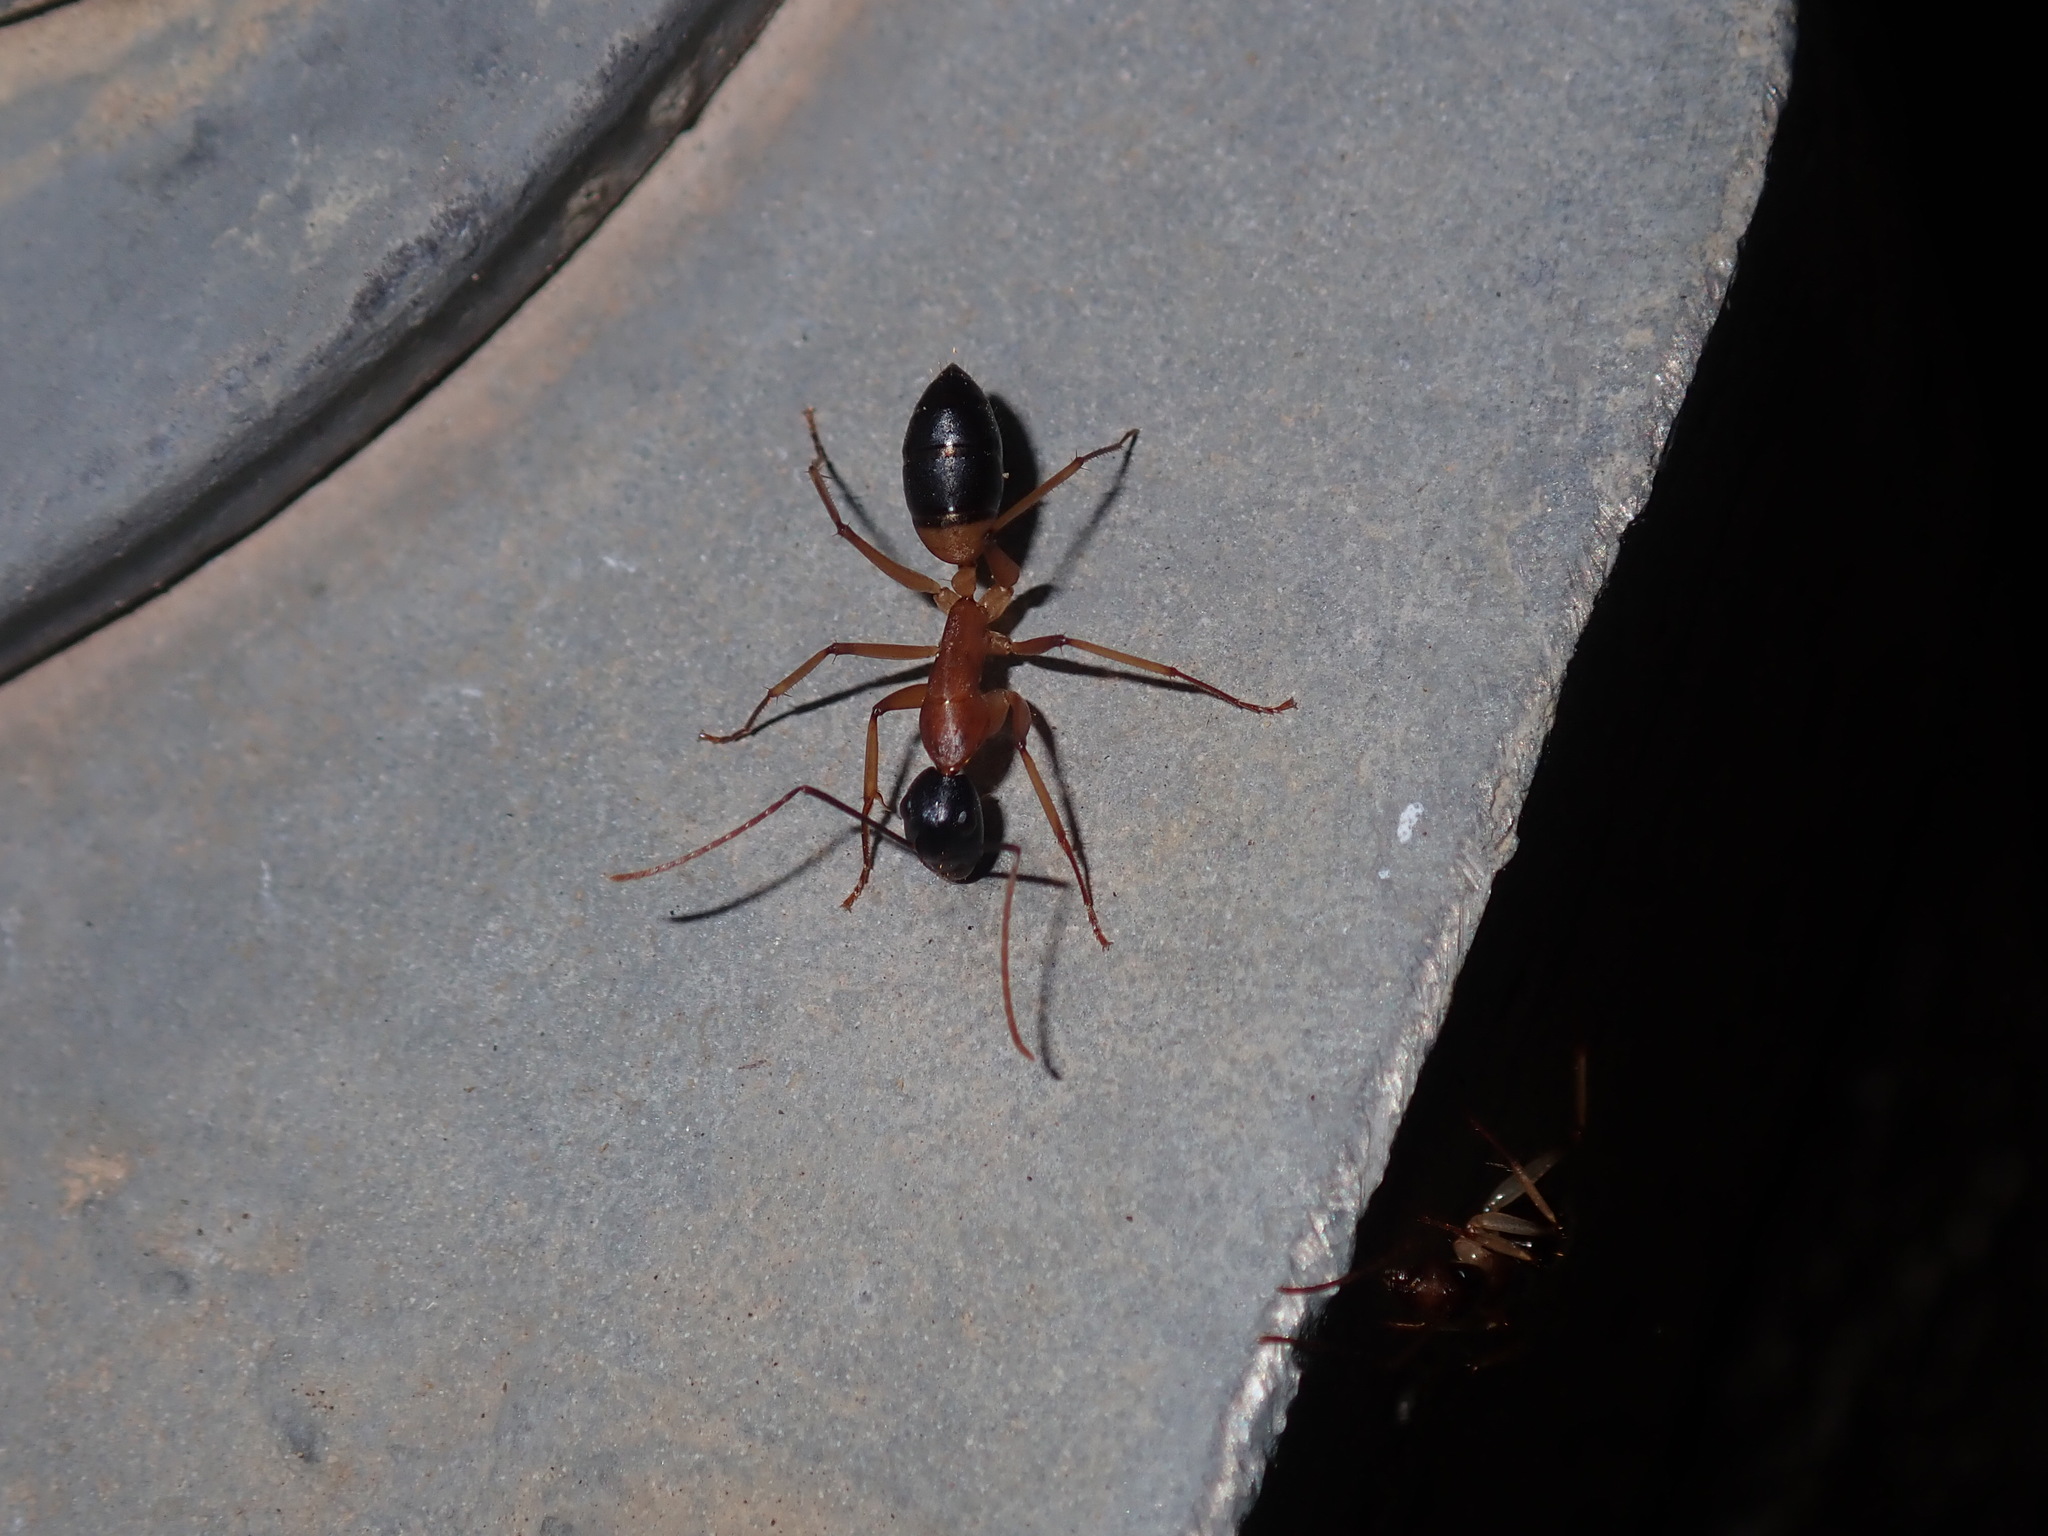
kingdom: Animalia
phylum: Arthropoda
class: Insecta
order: Hymenoptera
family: Formicidae
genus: Camponotus
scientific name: Camponotus consobrinus
